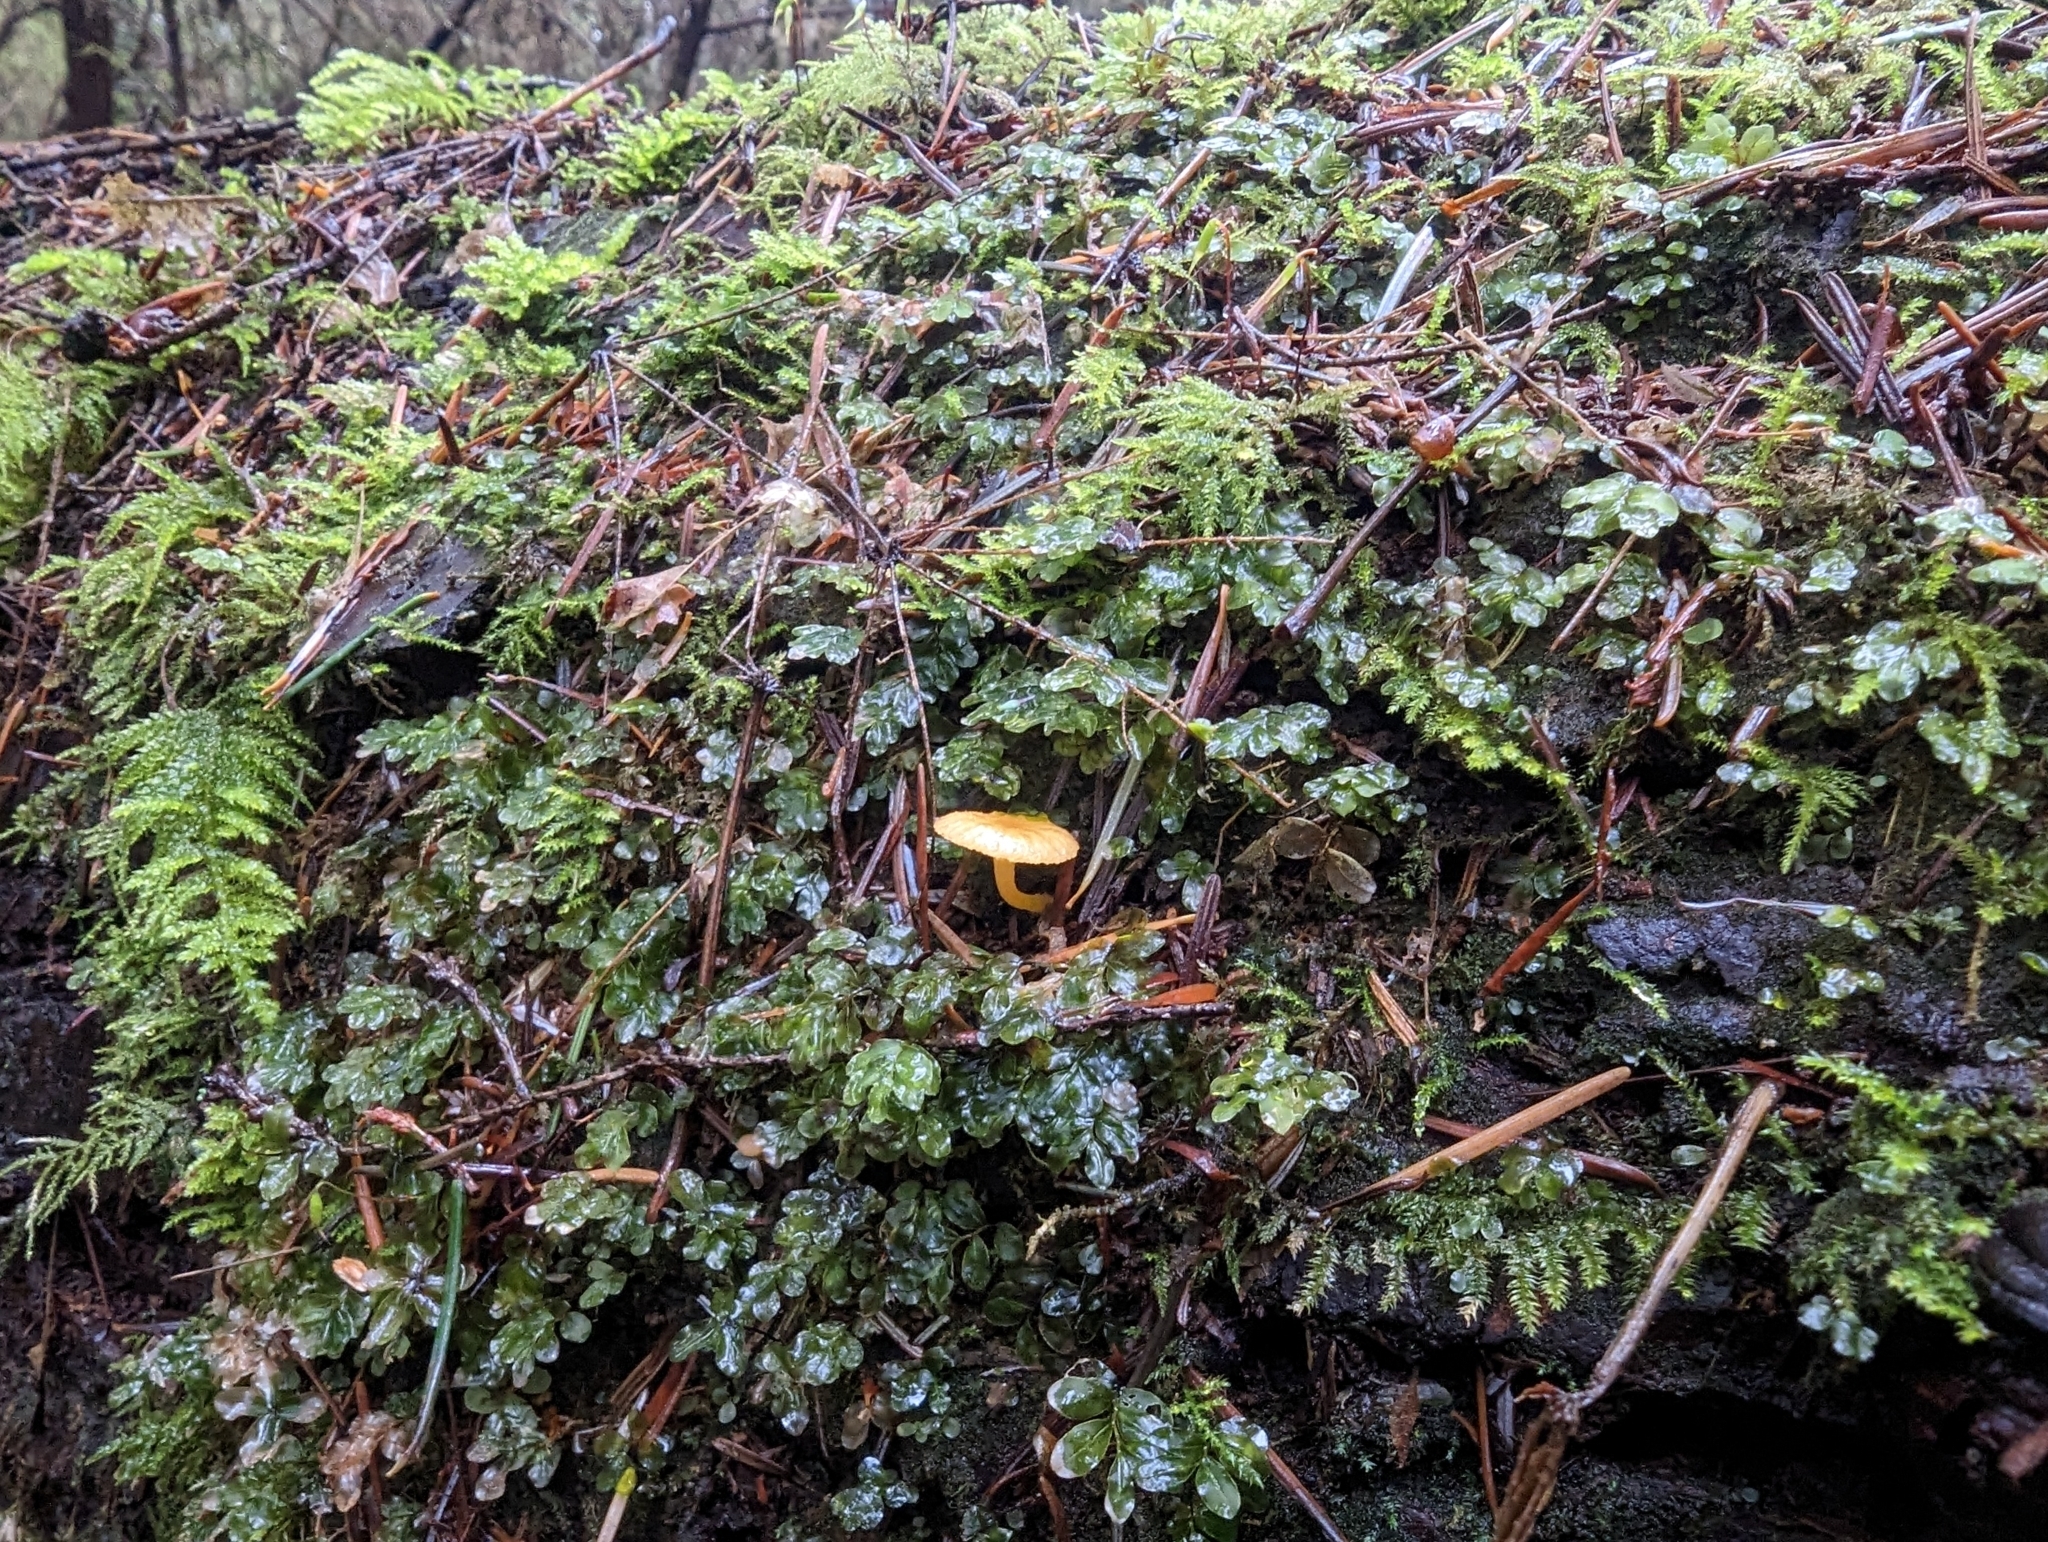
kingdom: Fungi
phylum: Basidiomycota
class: Agaricomycetes
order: Agaricales
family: Hygrophoraceae
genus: Chrysomphalina
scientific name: Chrysomphalina aurantiaca
